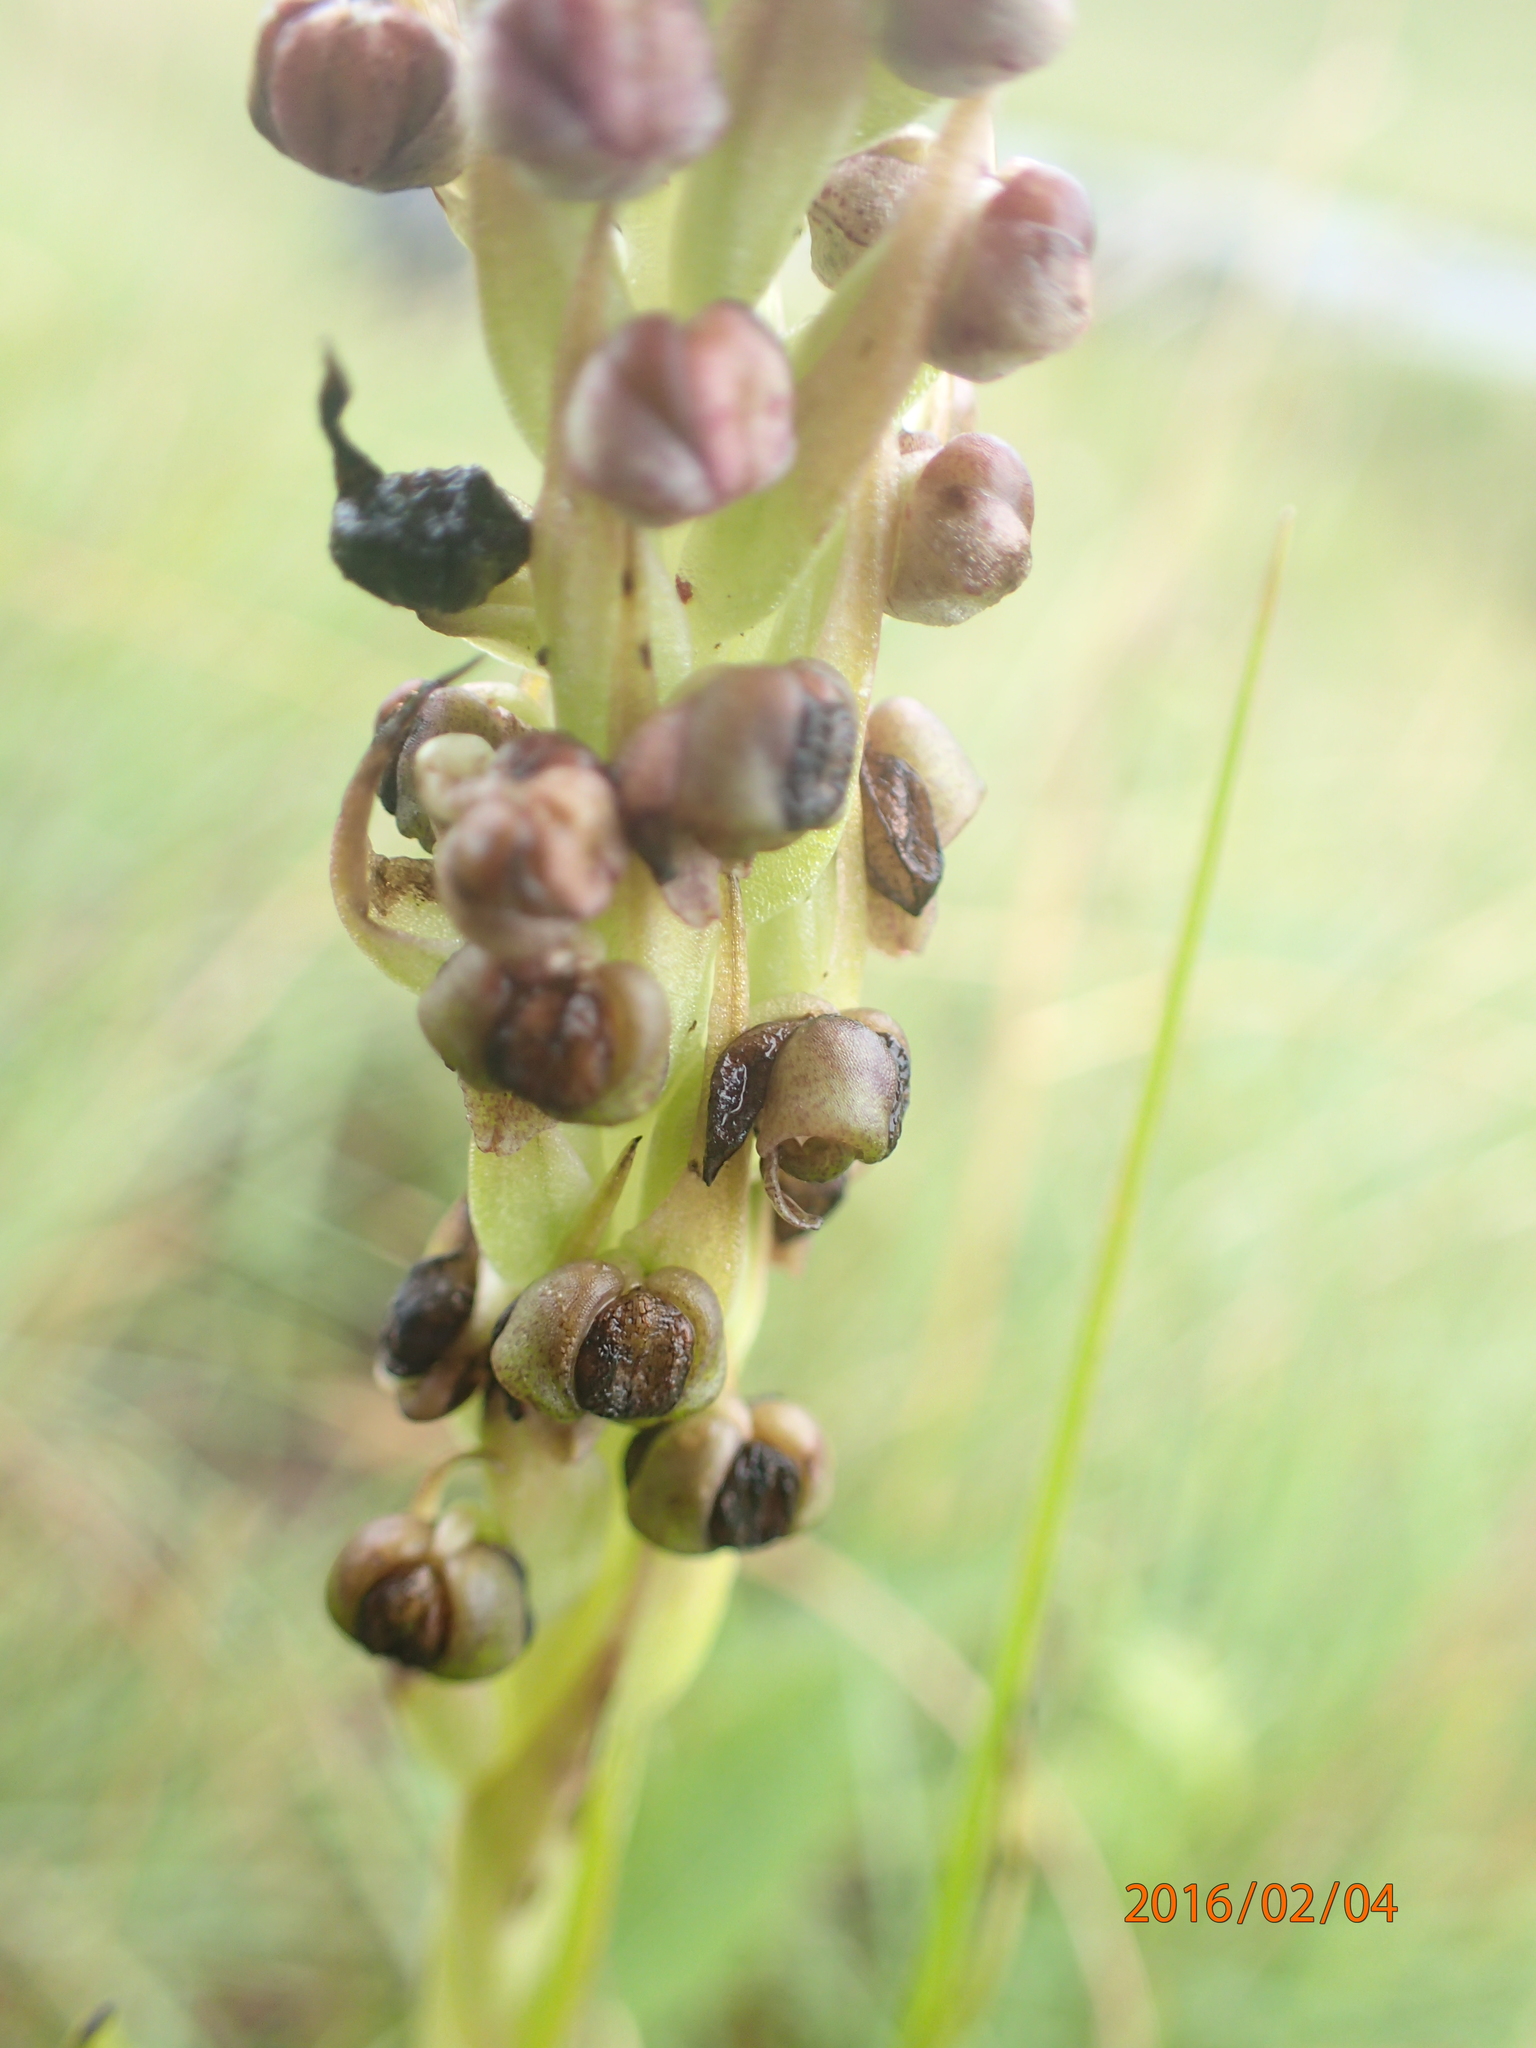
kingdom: Plantae
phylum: Tracheophyta
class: Liliopsida
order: Asparagales
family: Orchidaceae
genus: Corycium
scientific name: Corycium nigrescens
